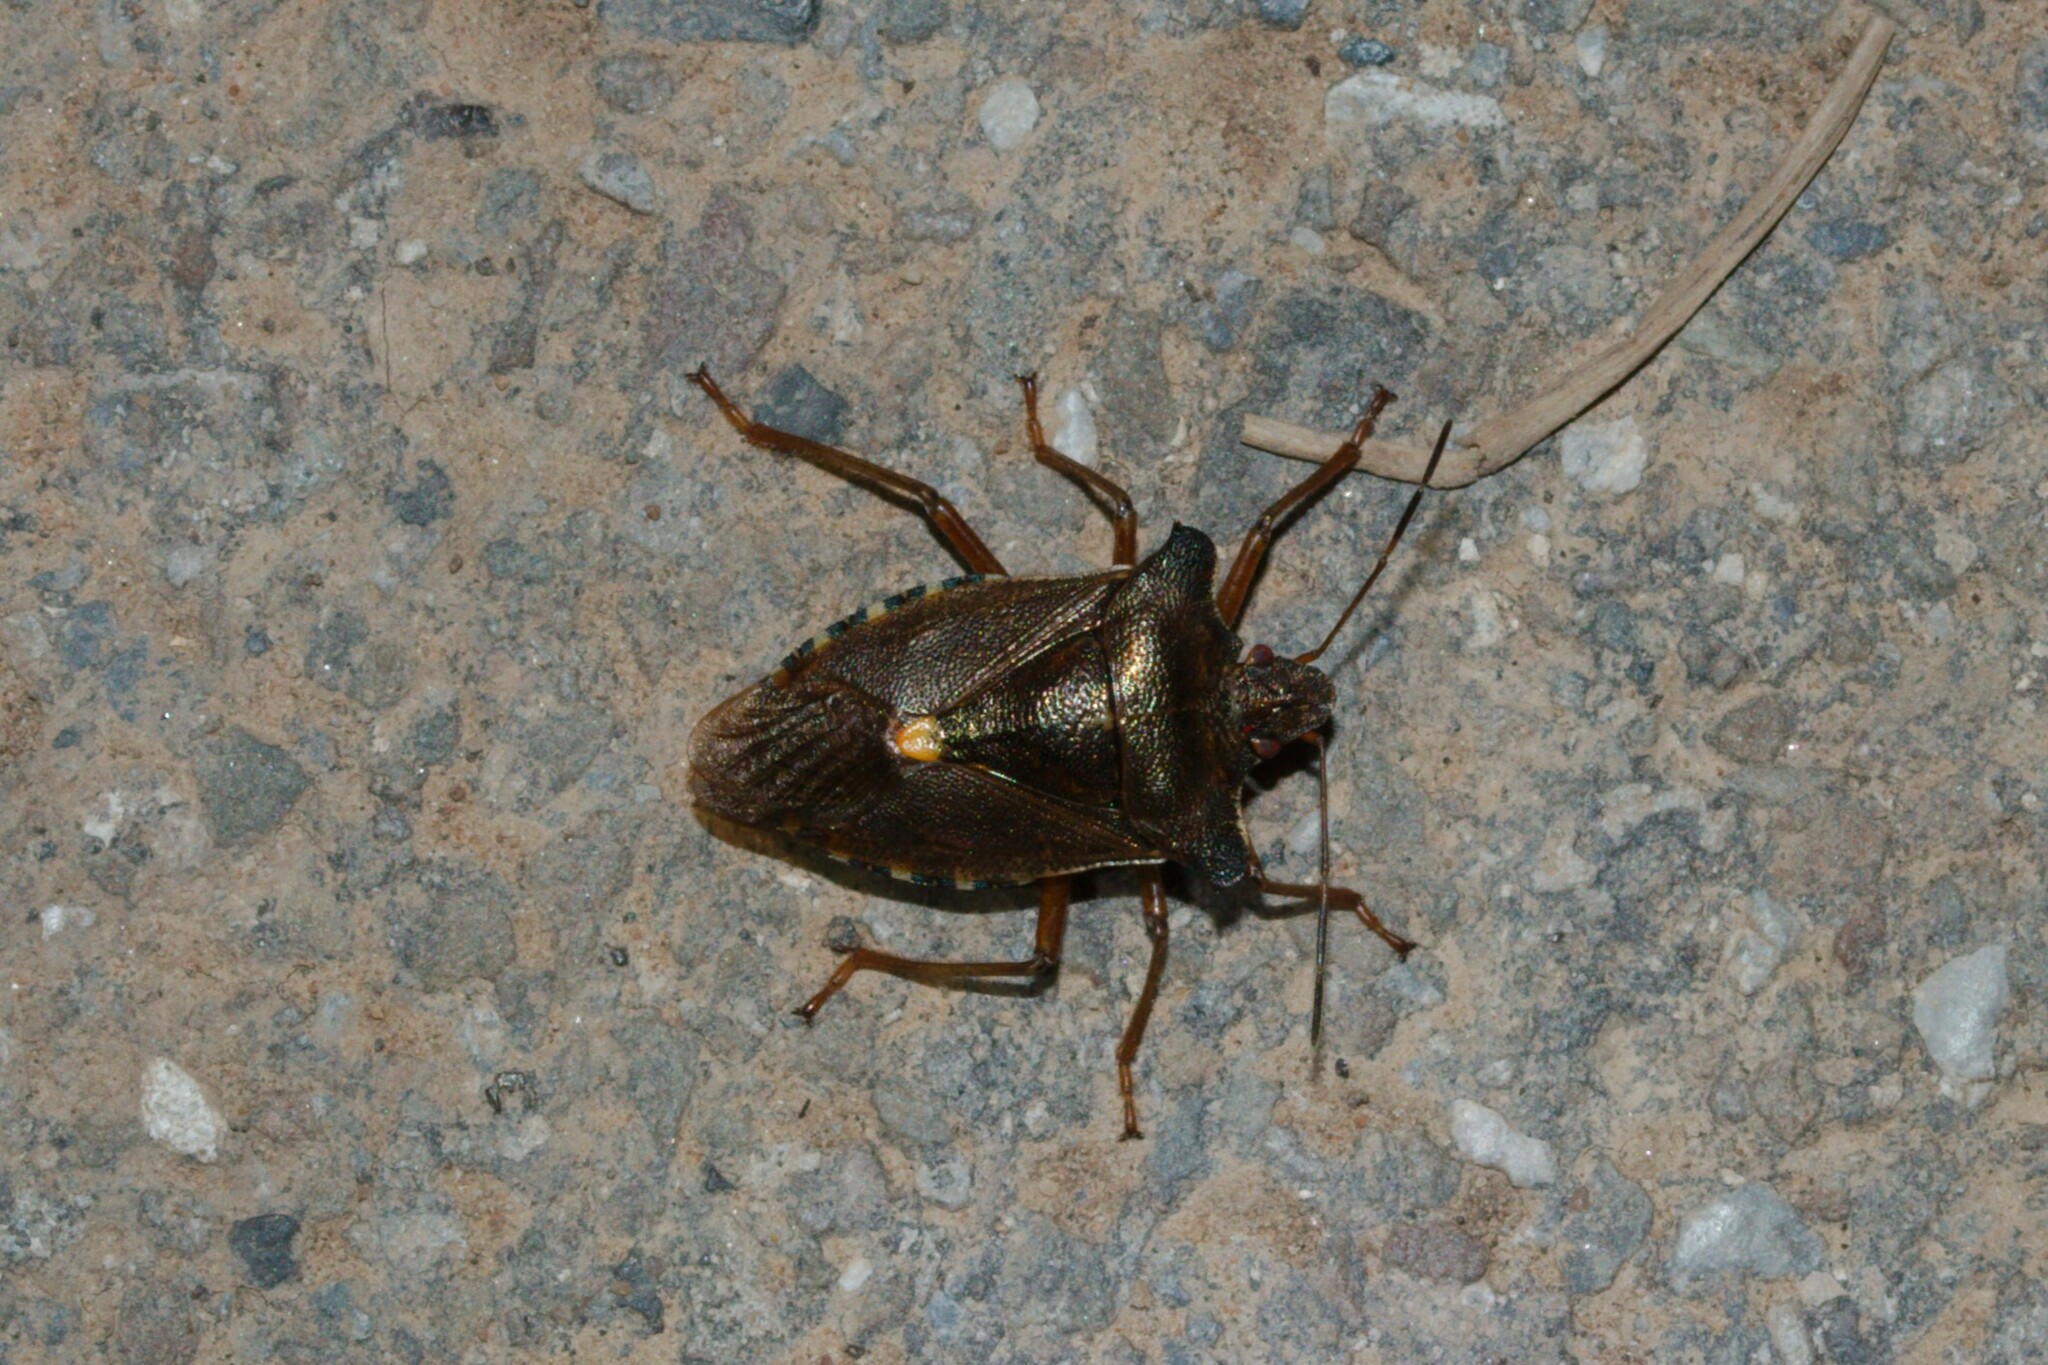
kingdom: Animalia
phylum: Arthropoda
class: Insecta
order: Hemiptera
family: Pentatomidae
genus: Pentatoma
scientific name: Pentatoma rufipes
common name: Forest bug
